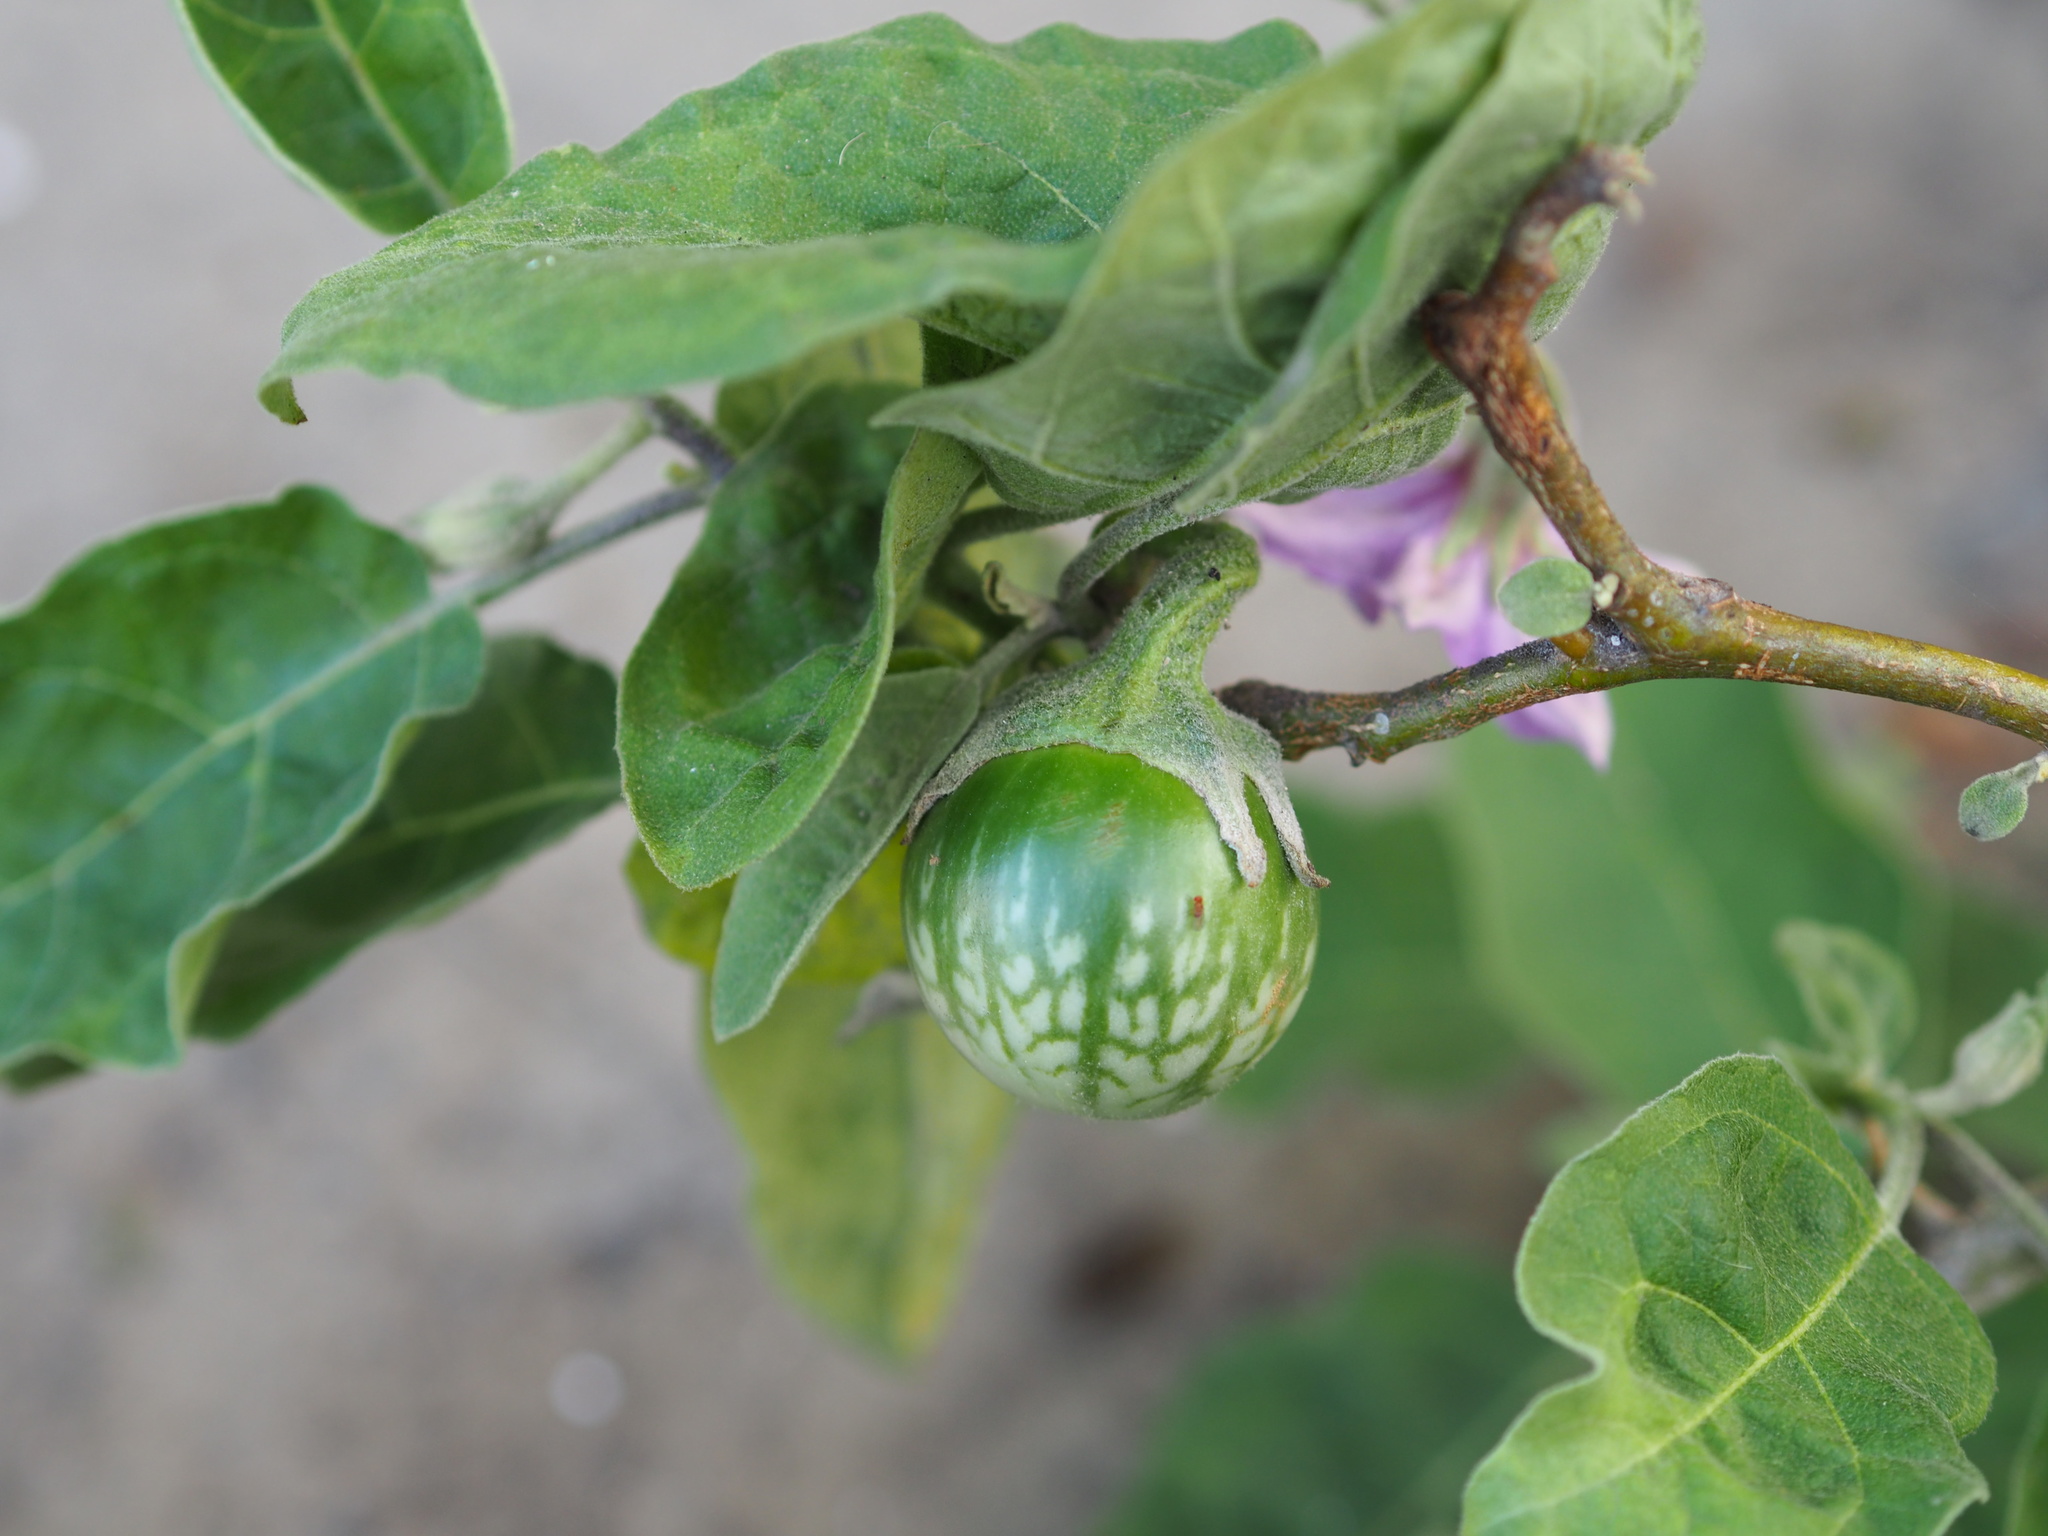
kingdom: Plantae
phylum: Tracheophyta
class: Magnoliopsida
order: Solanales
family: Solanaceae
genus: Solanum
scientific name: Solanum insanum
